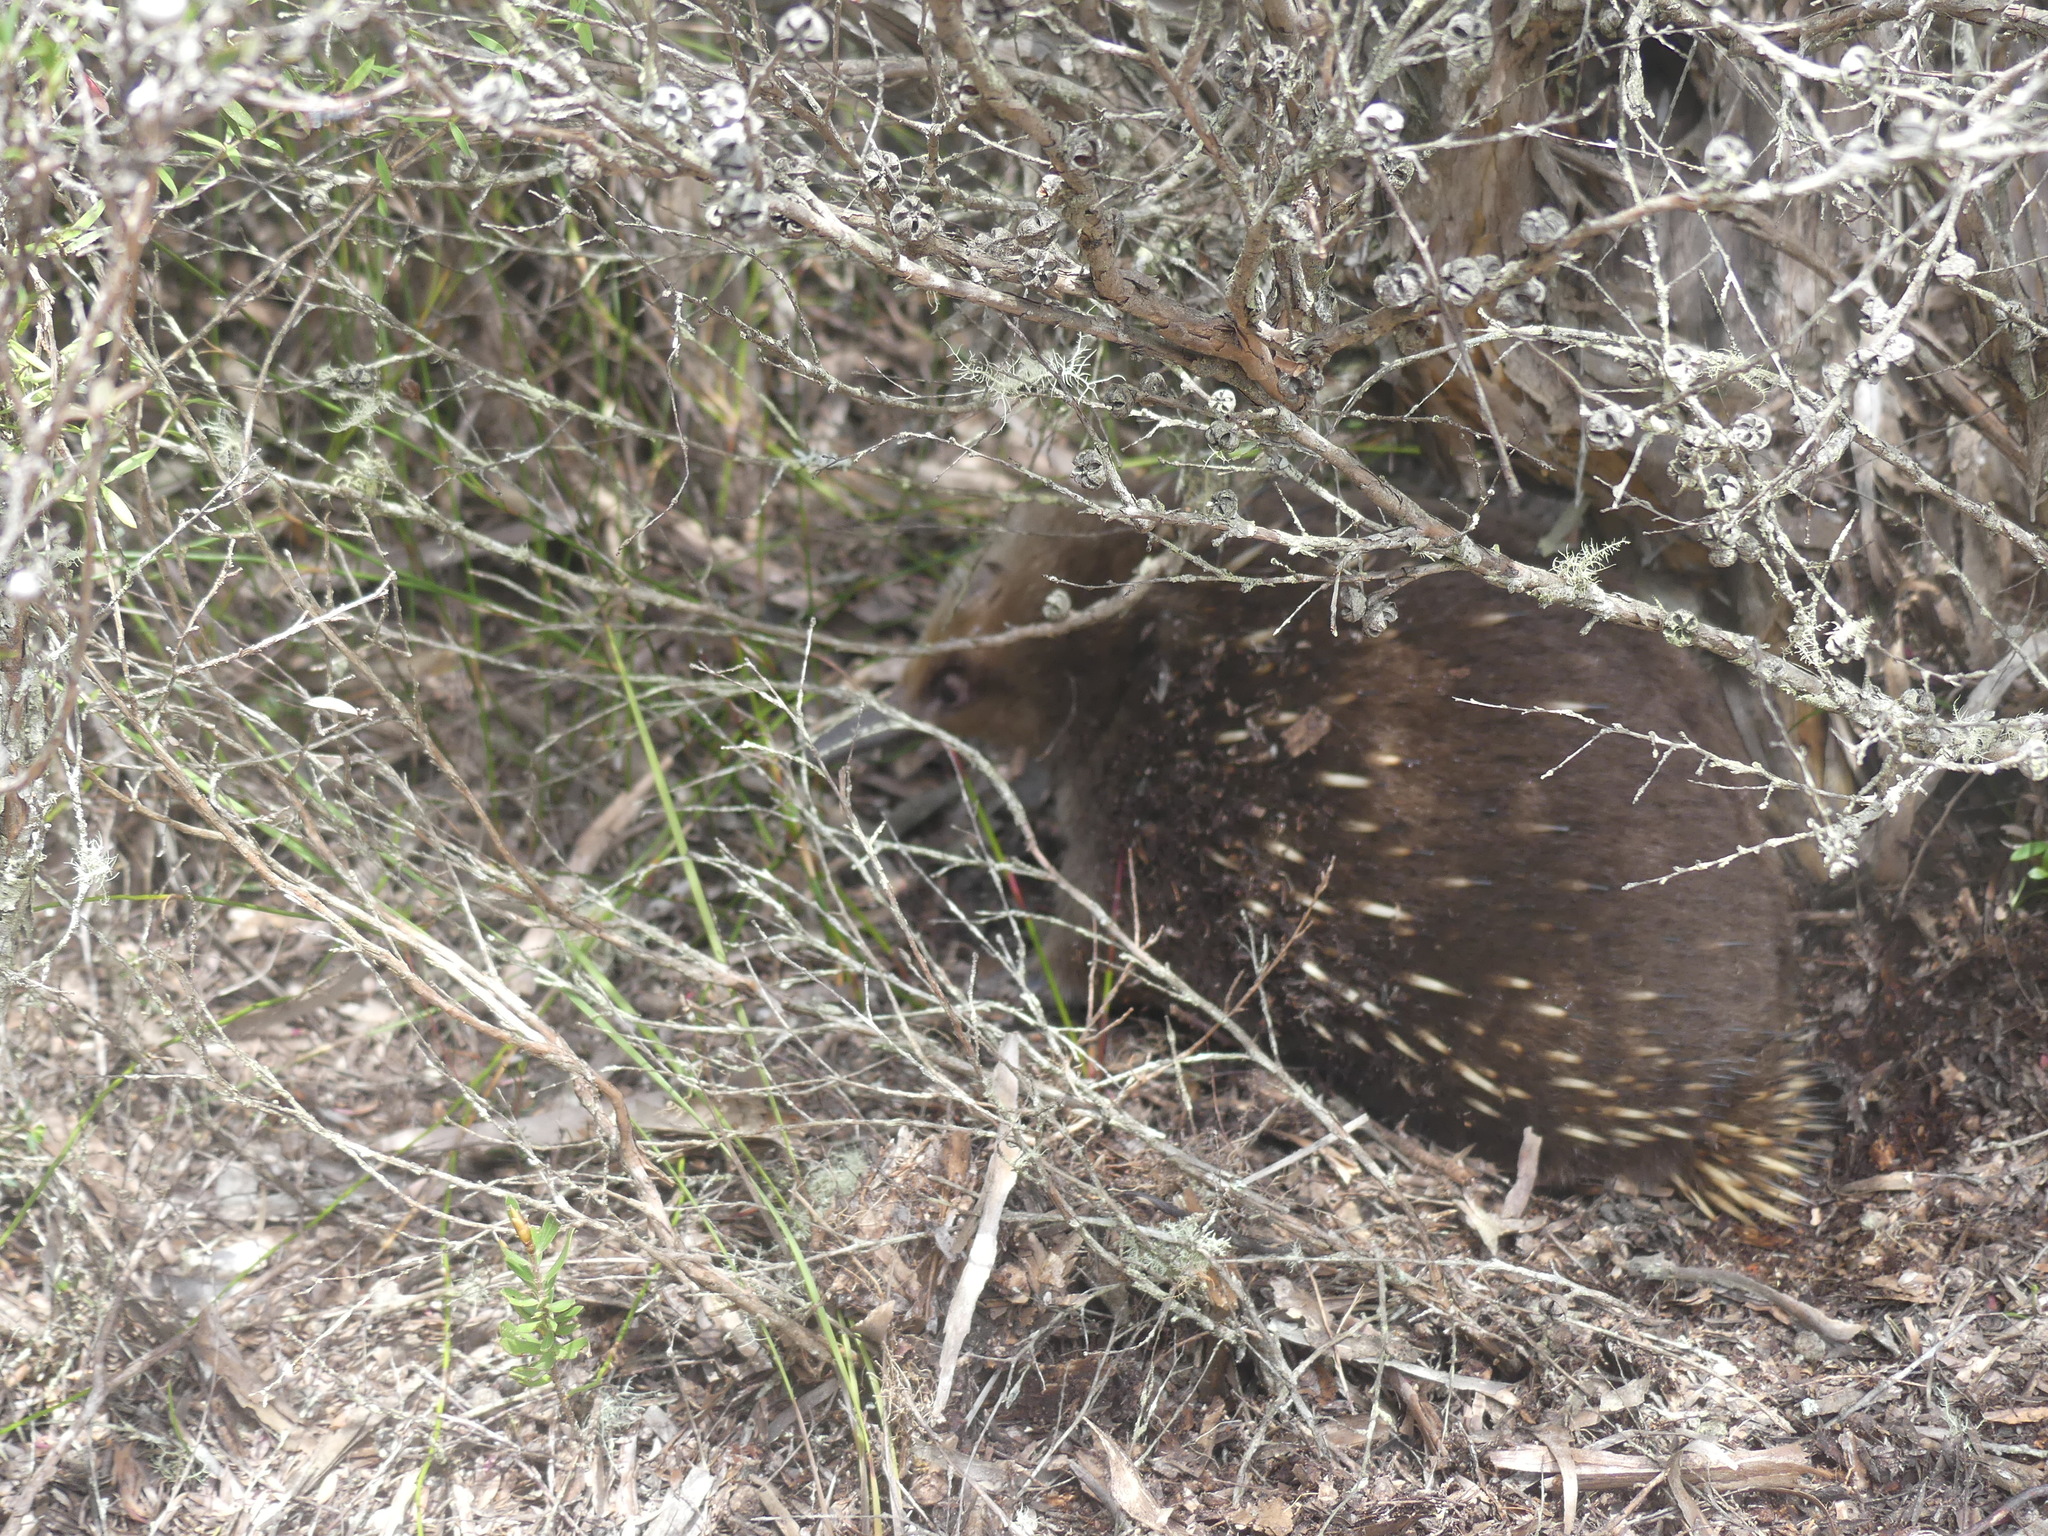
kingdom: Animalia
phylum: Chordata
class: Mammalia
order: Monotremata
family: Tachyglossidae
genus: Tachyglossus
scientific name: Tachyglossus aculeatus
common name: Short-beaked echidna
